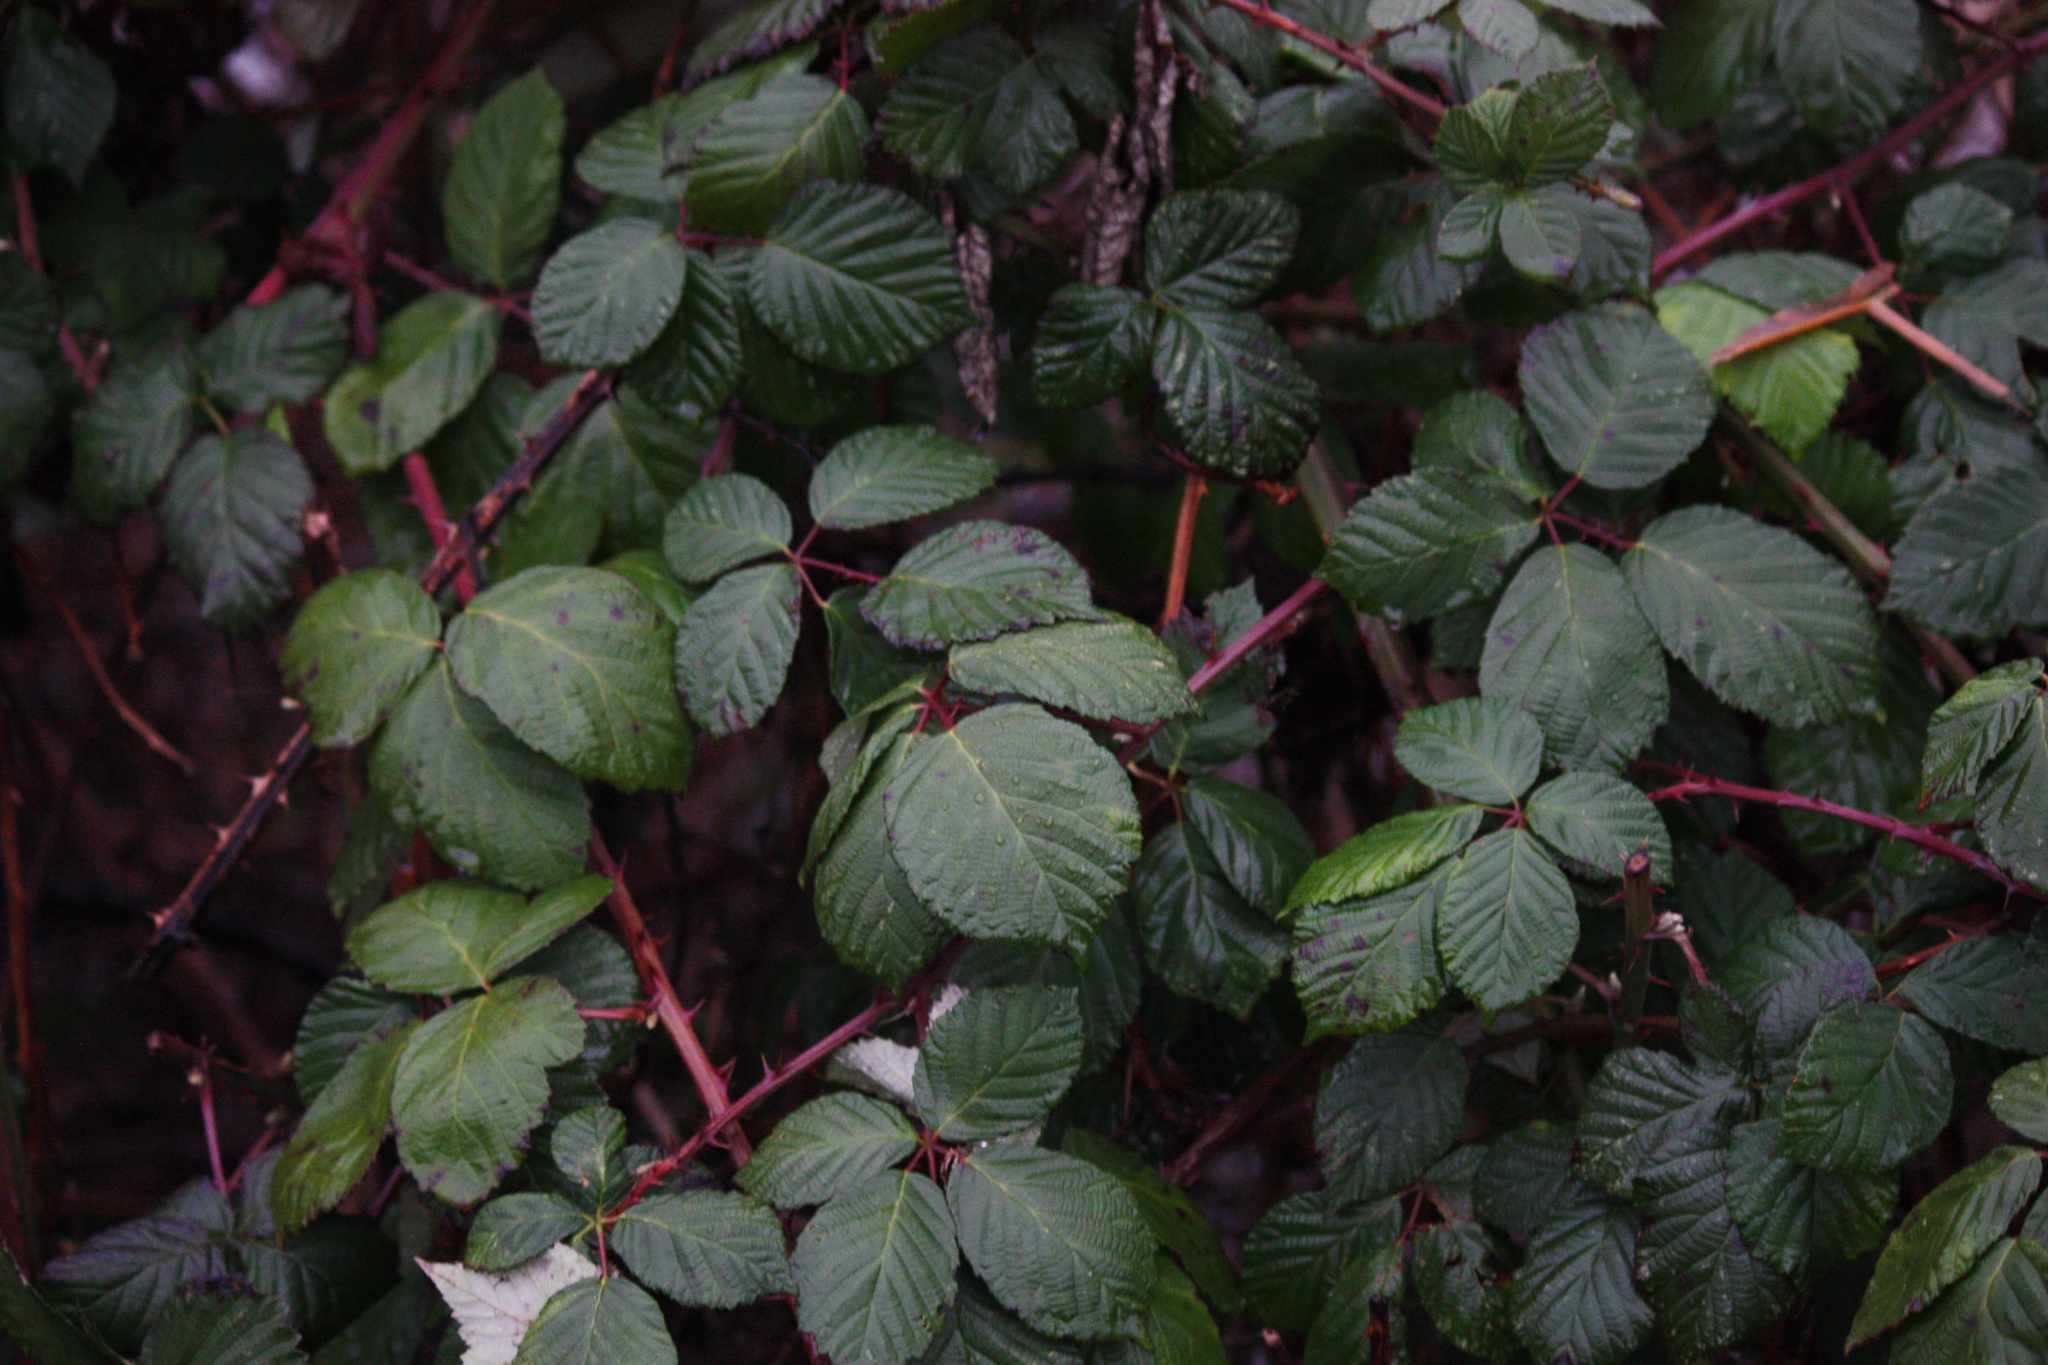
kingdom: Plantae
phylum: Tracheophyta
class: Magnoliopsida
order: Rosales
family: Rosaceae
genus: Rubus
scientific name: Rubus bifrons
